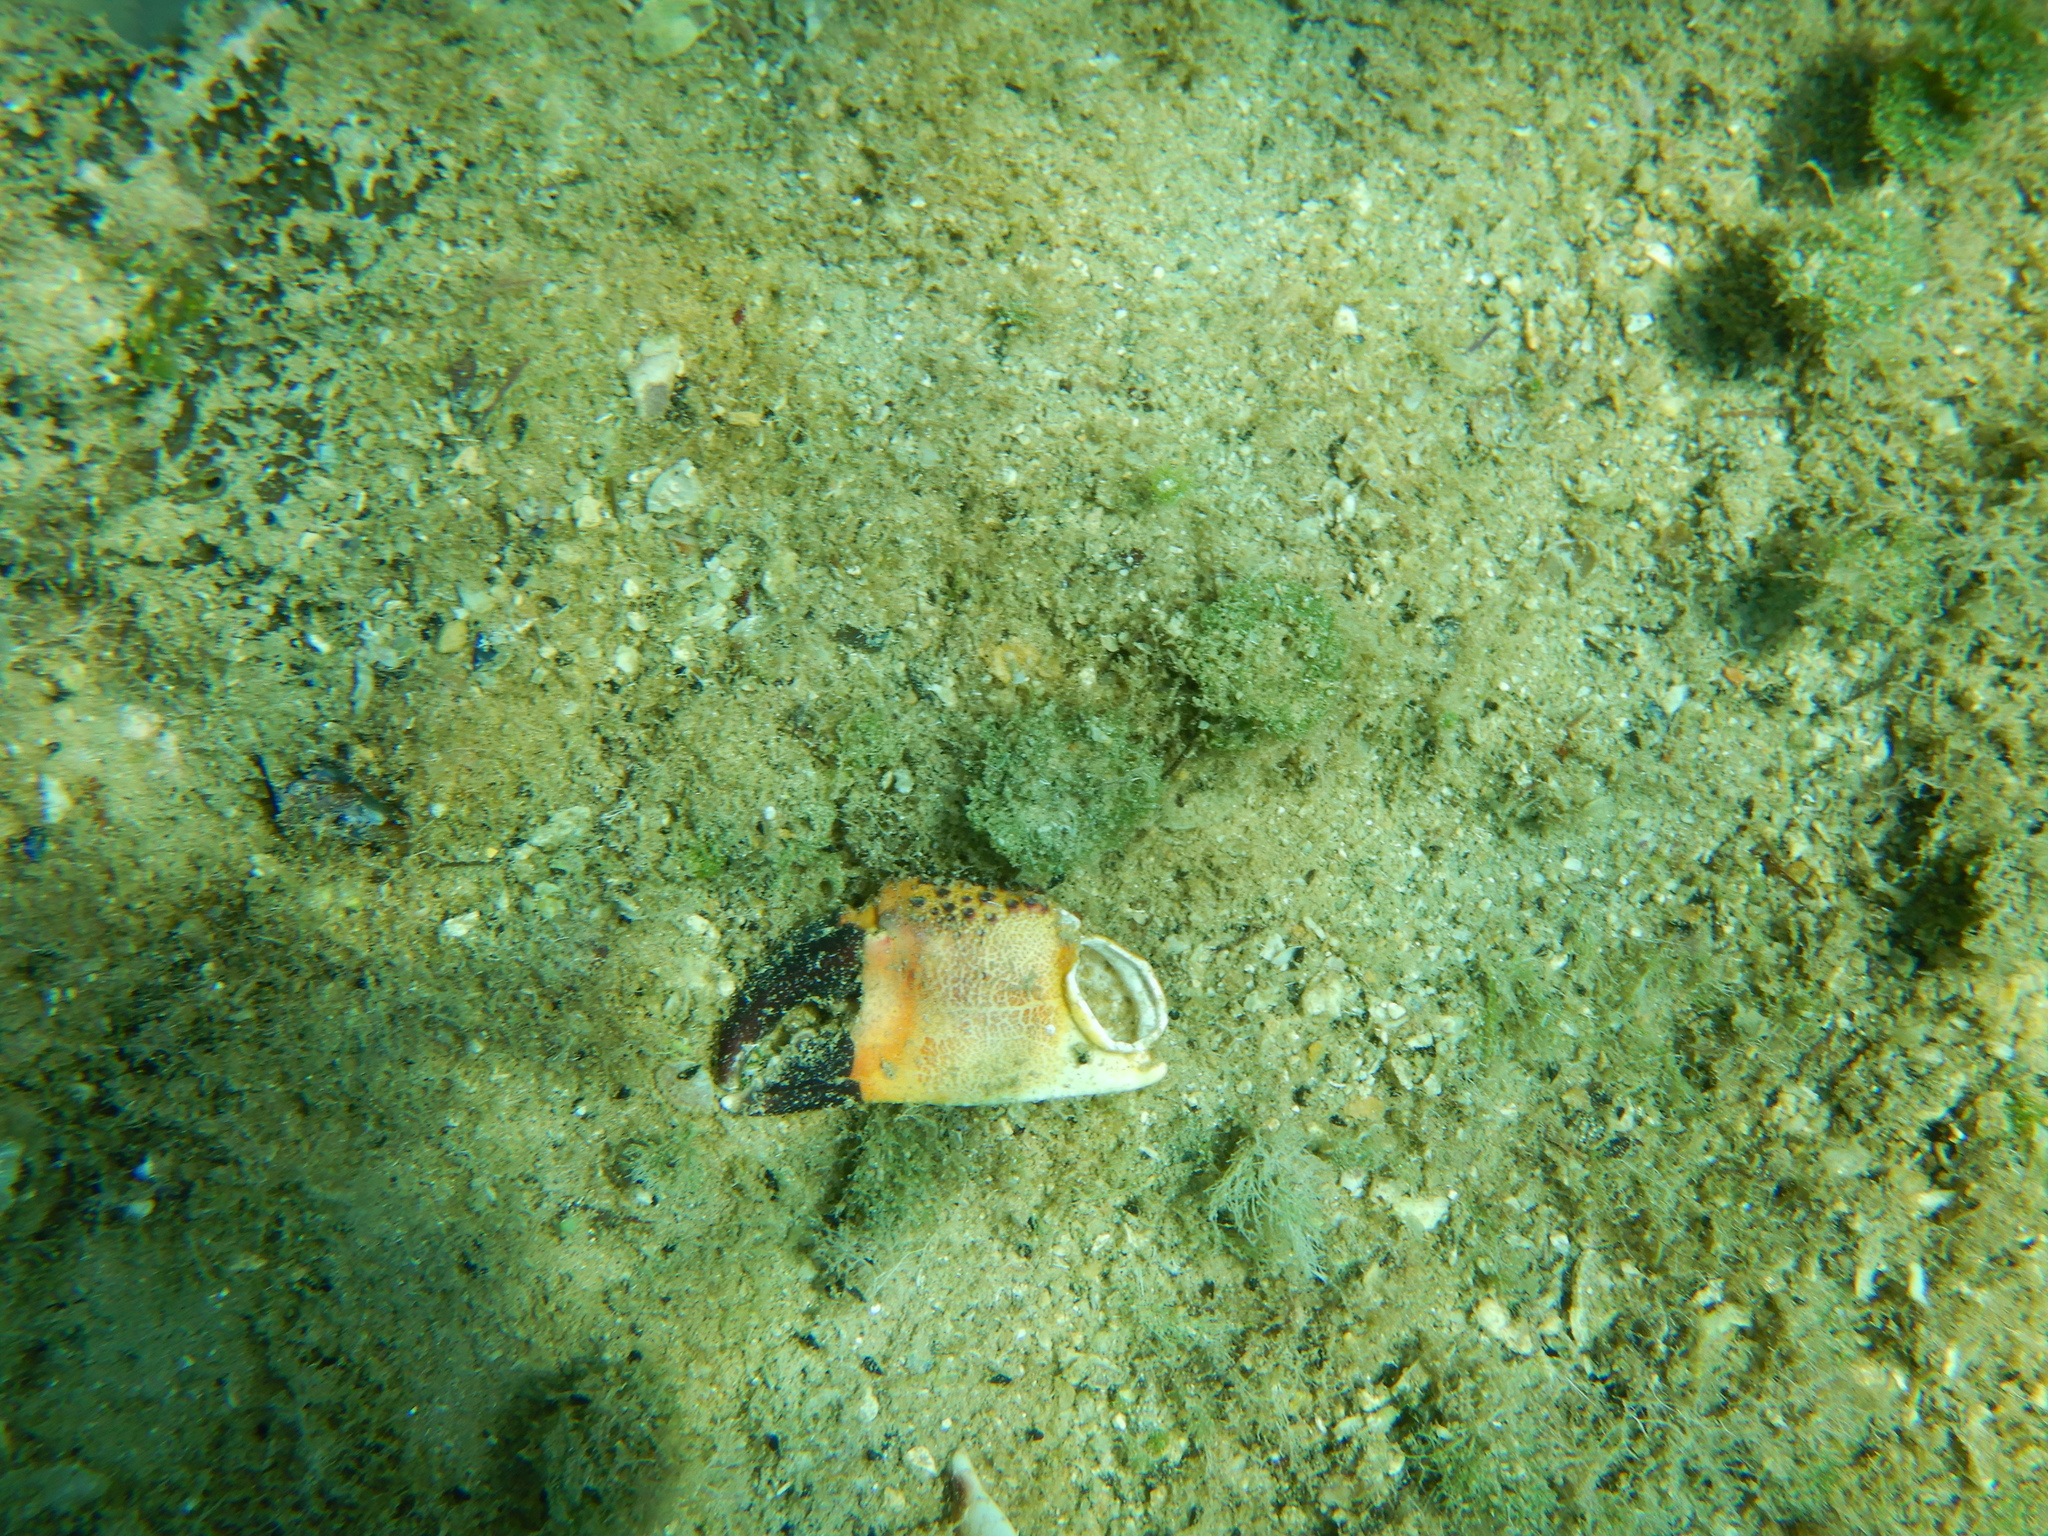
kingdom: Animalia
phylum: Arthropoda
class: Malacostraca
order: Decapoda
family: Eriphiidae
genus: Eriphia
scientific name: Eriphia verrucosa
